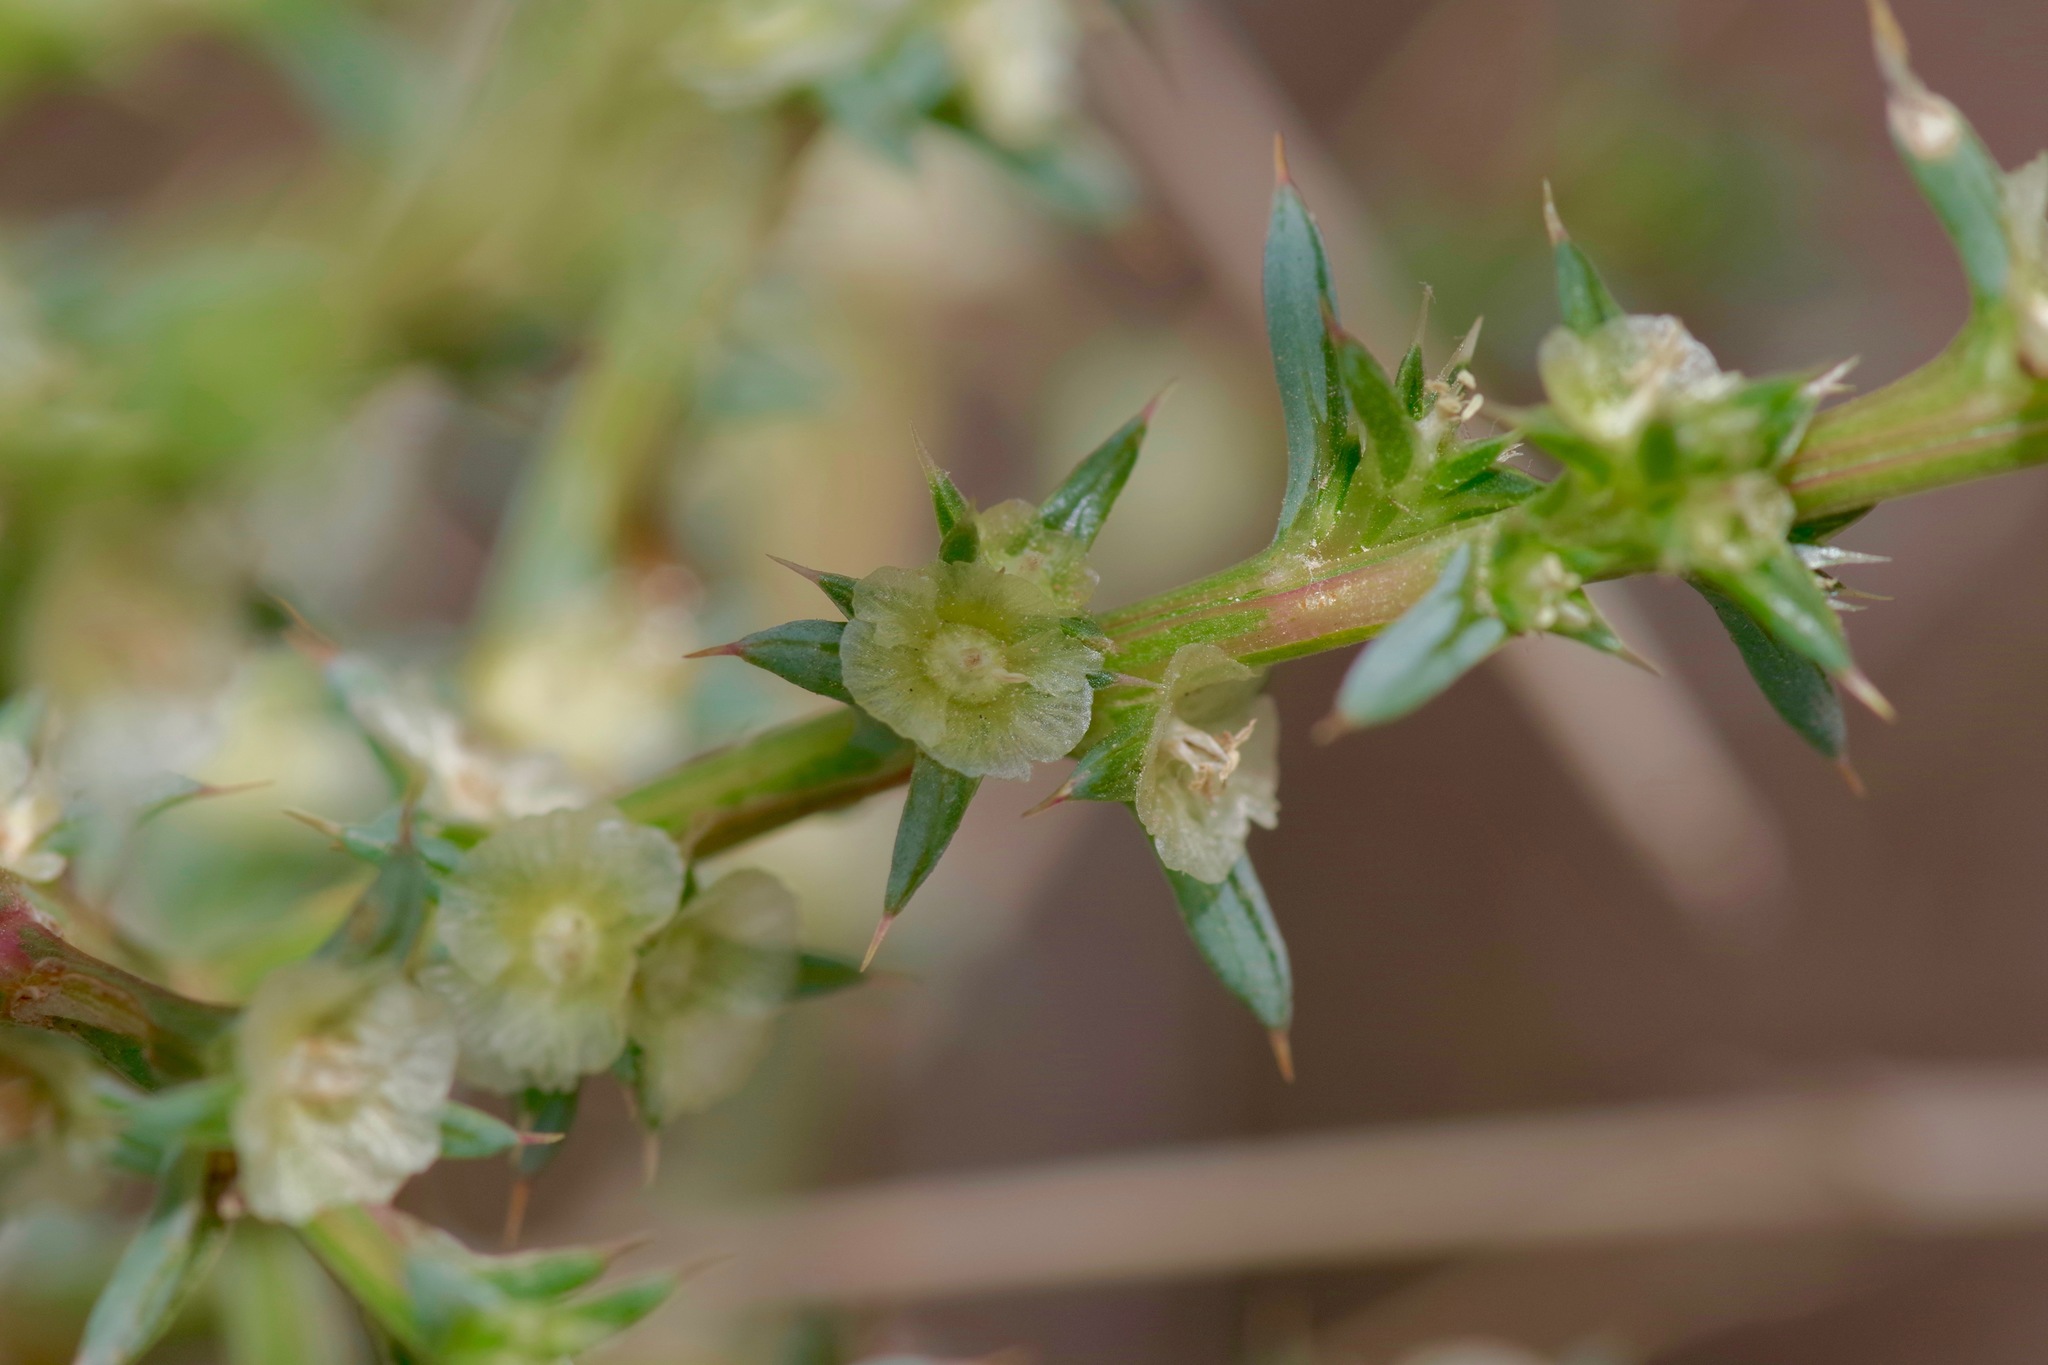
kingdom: Plantae
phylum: Tracheophyta
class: Magnoliopsida
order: Caryophyllales
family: Amaranthaceae
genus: Salsola
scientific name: Salsola tragus
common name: Prickly russian thistle
